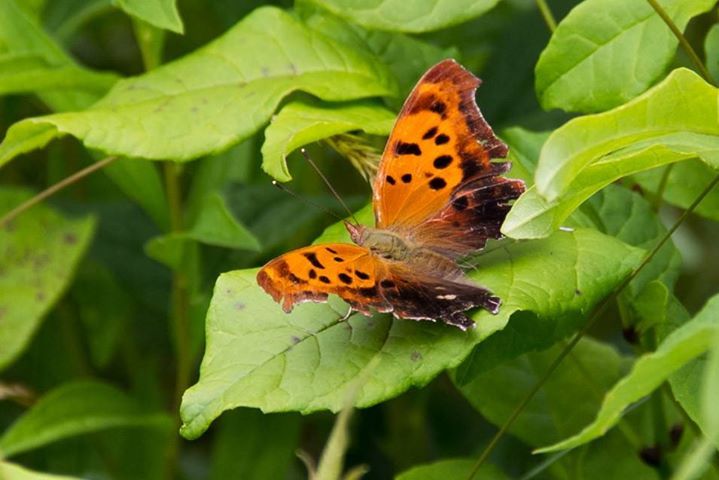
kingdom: Animalia
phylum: Arthropoda
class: Insecta
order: Lepidoptera
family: Nymphalidae
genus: Polygonia
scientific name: Polygonia interrogationis
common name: Question mark
